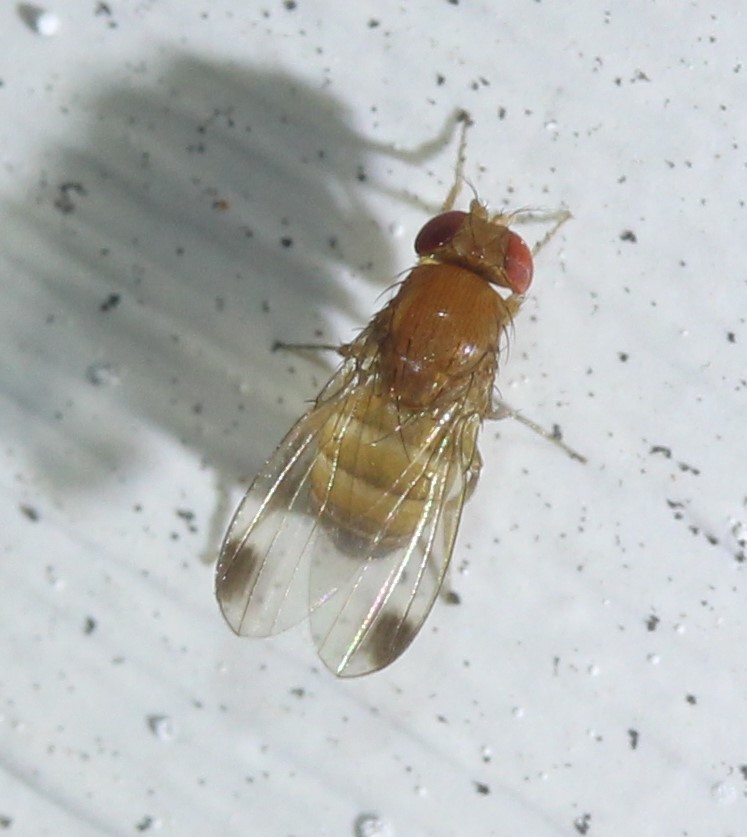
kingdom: Animalia
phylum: Arthropoda
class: Insecta
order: Diptera
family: Drosophilidae
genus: Drosophila
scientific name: Drosophila suzukii
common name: Spotted-wing drosophila
